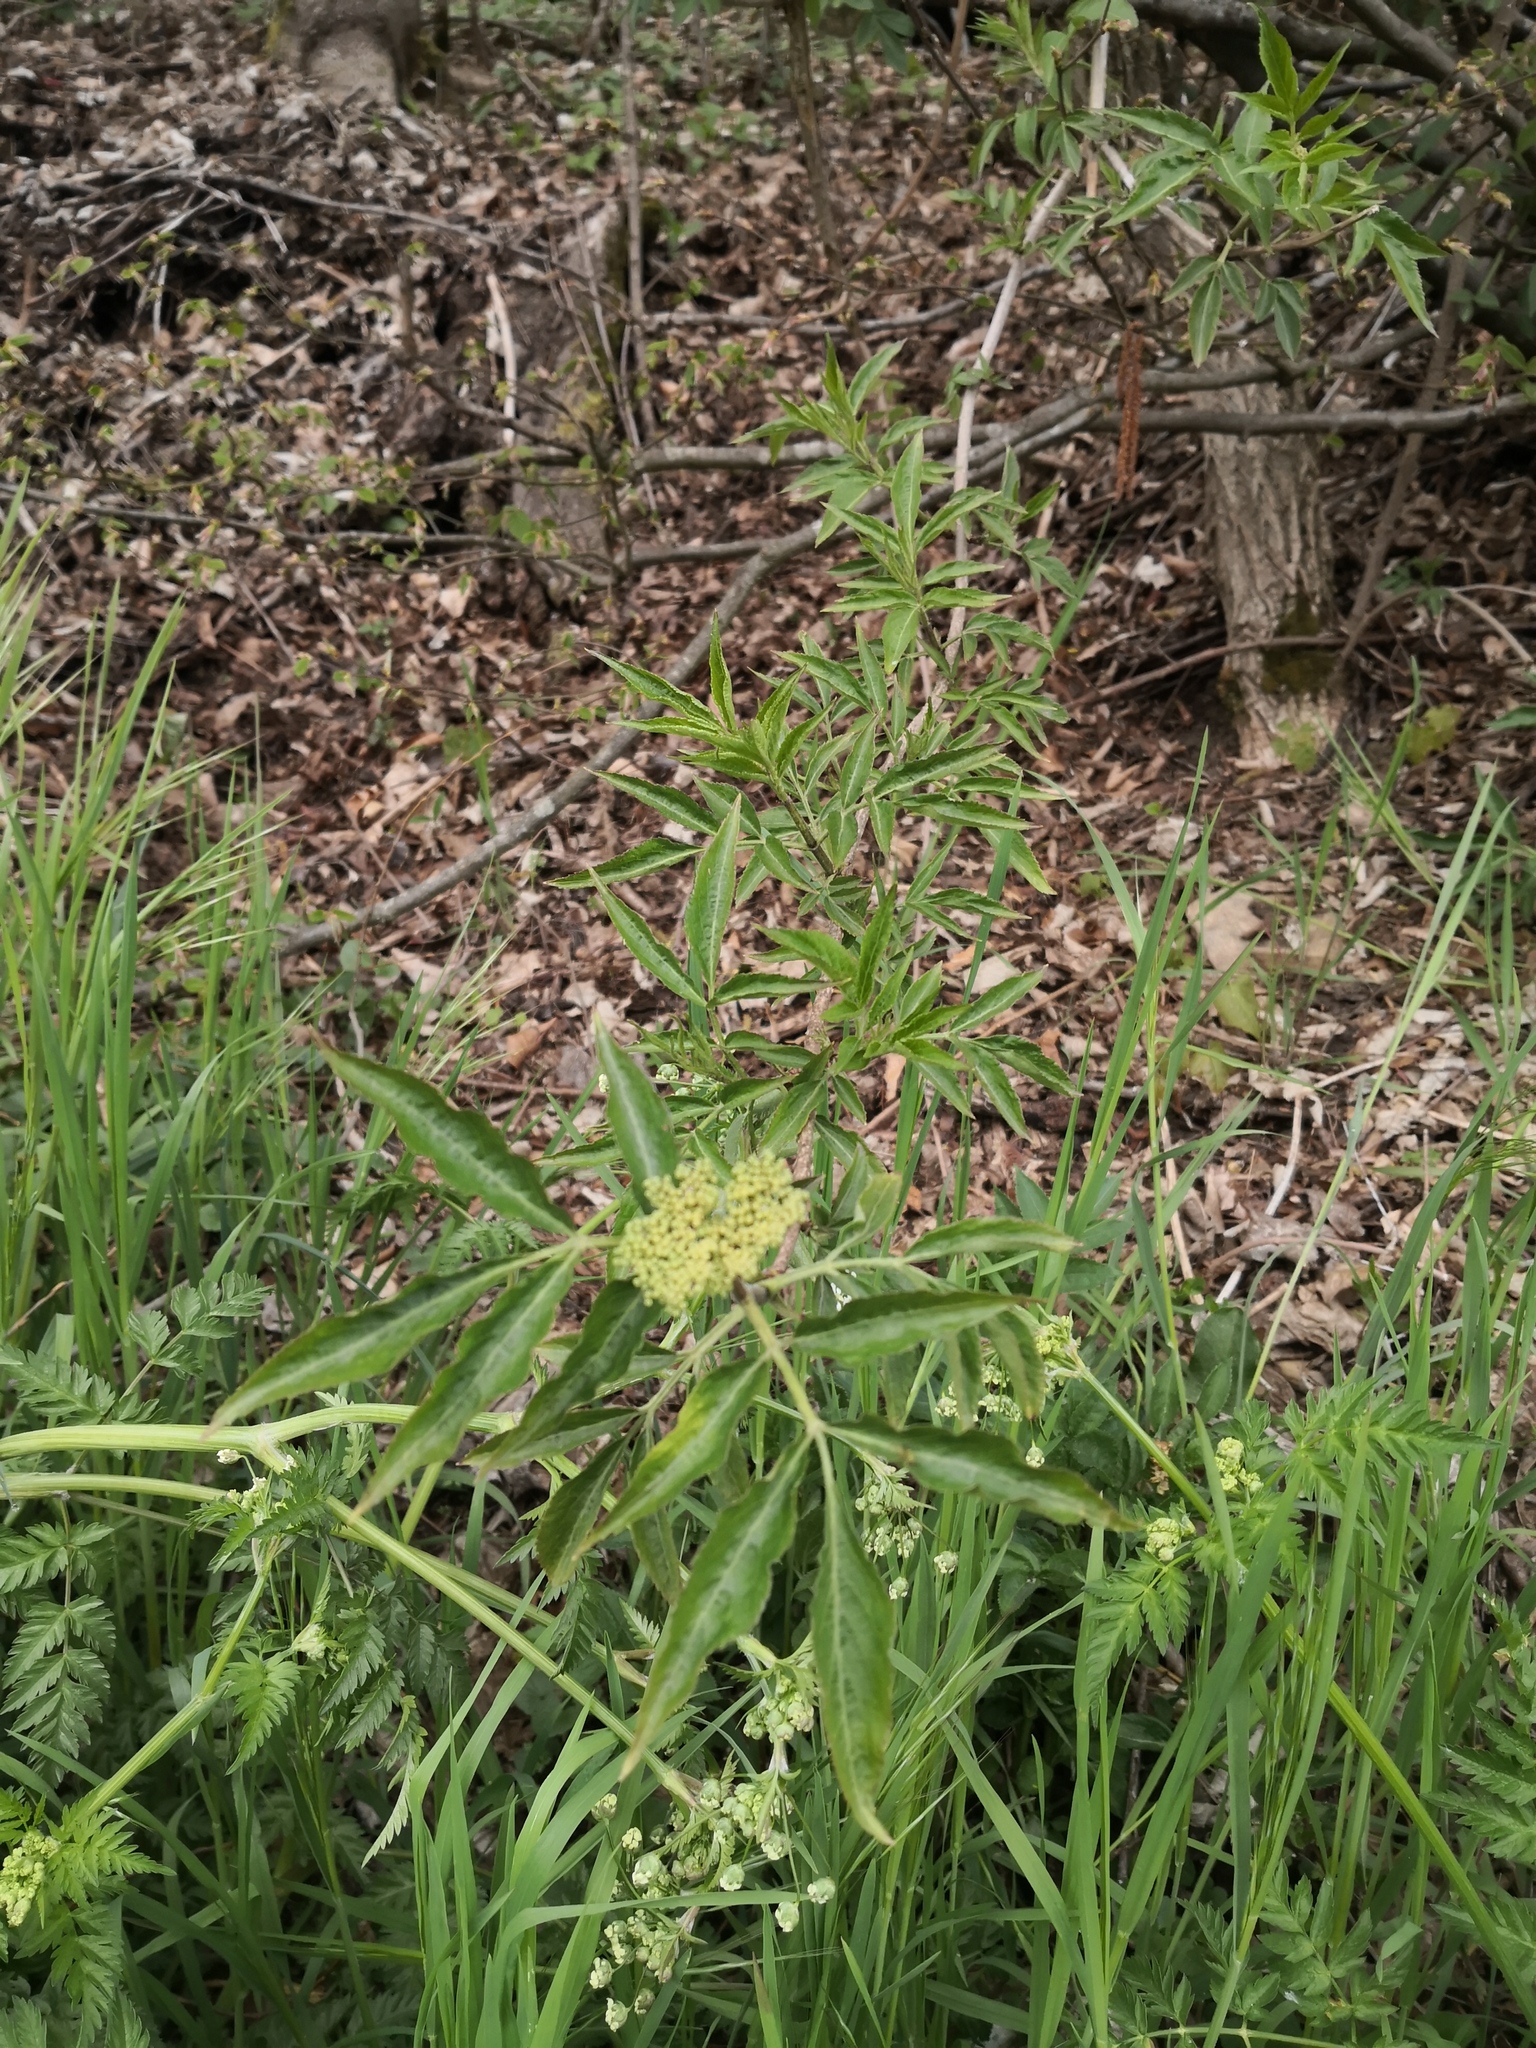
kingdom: Plantae
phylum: Tracheophyta
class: Magnoliopsida
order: Dipsacales
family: Viburnaceae
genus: Sambucus
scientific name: Sambucus racemosa
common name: Red-berried elder
